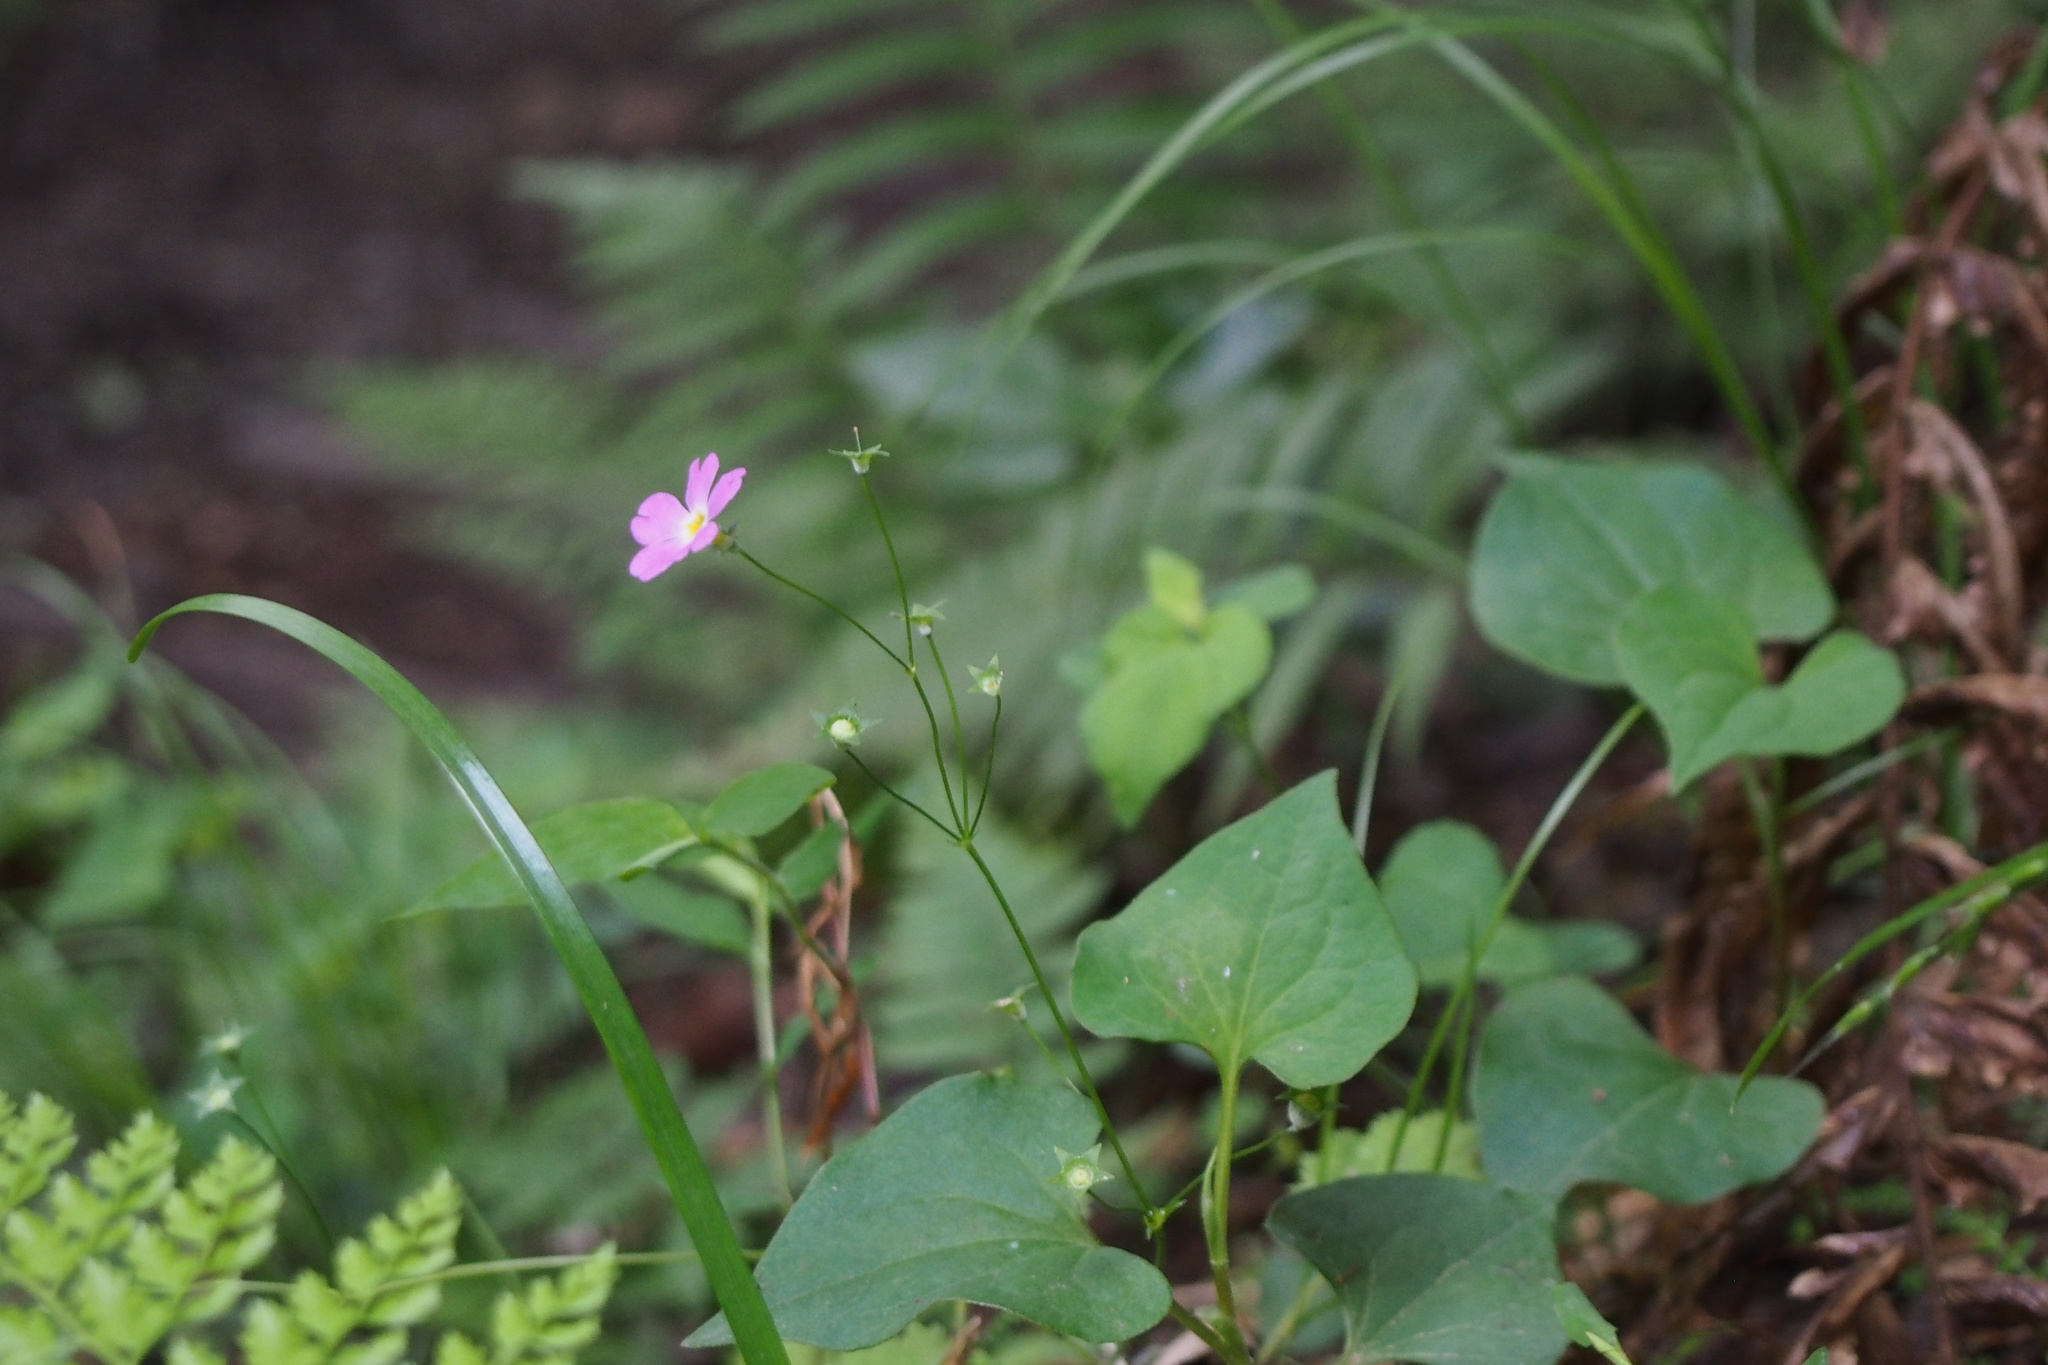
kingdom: Plantae
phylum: Tracheophyta
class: Magnoliopsida
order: Ericales
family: Primulaceae
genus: Primula
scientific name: Primula malacoides
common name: Baby primrose
